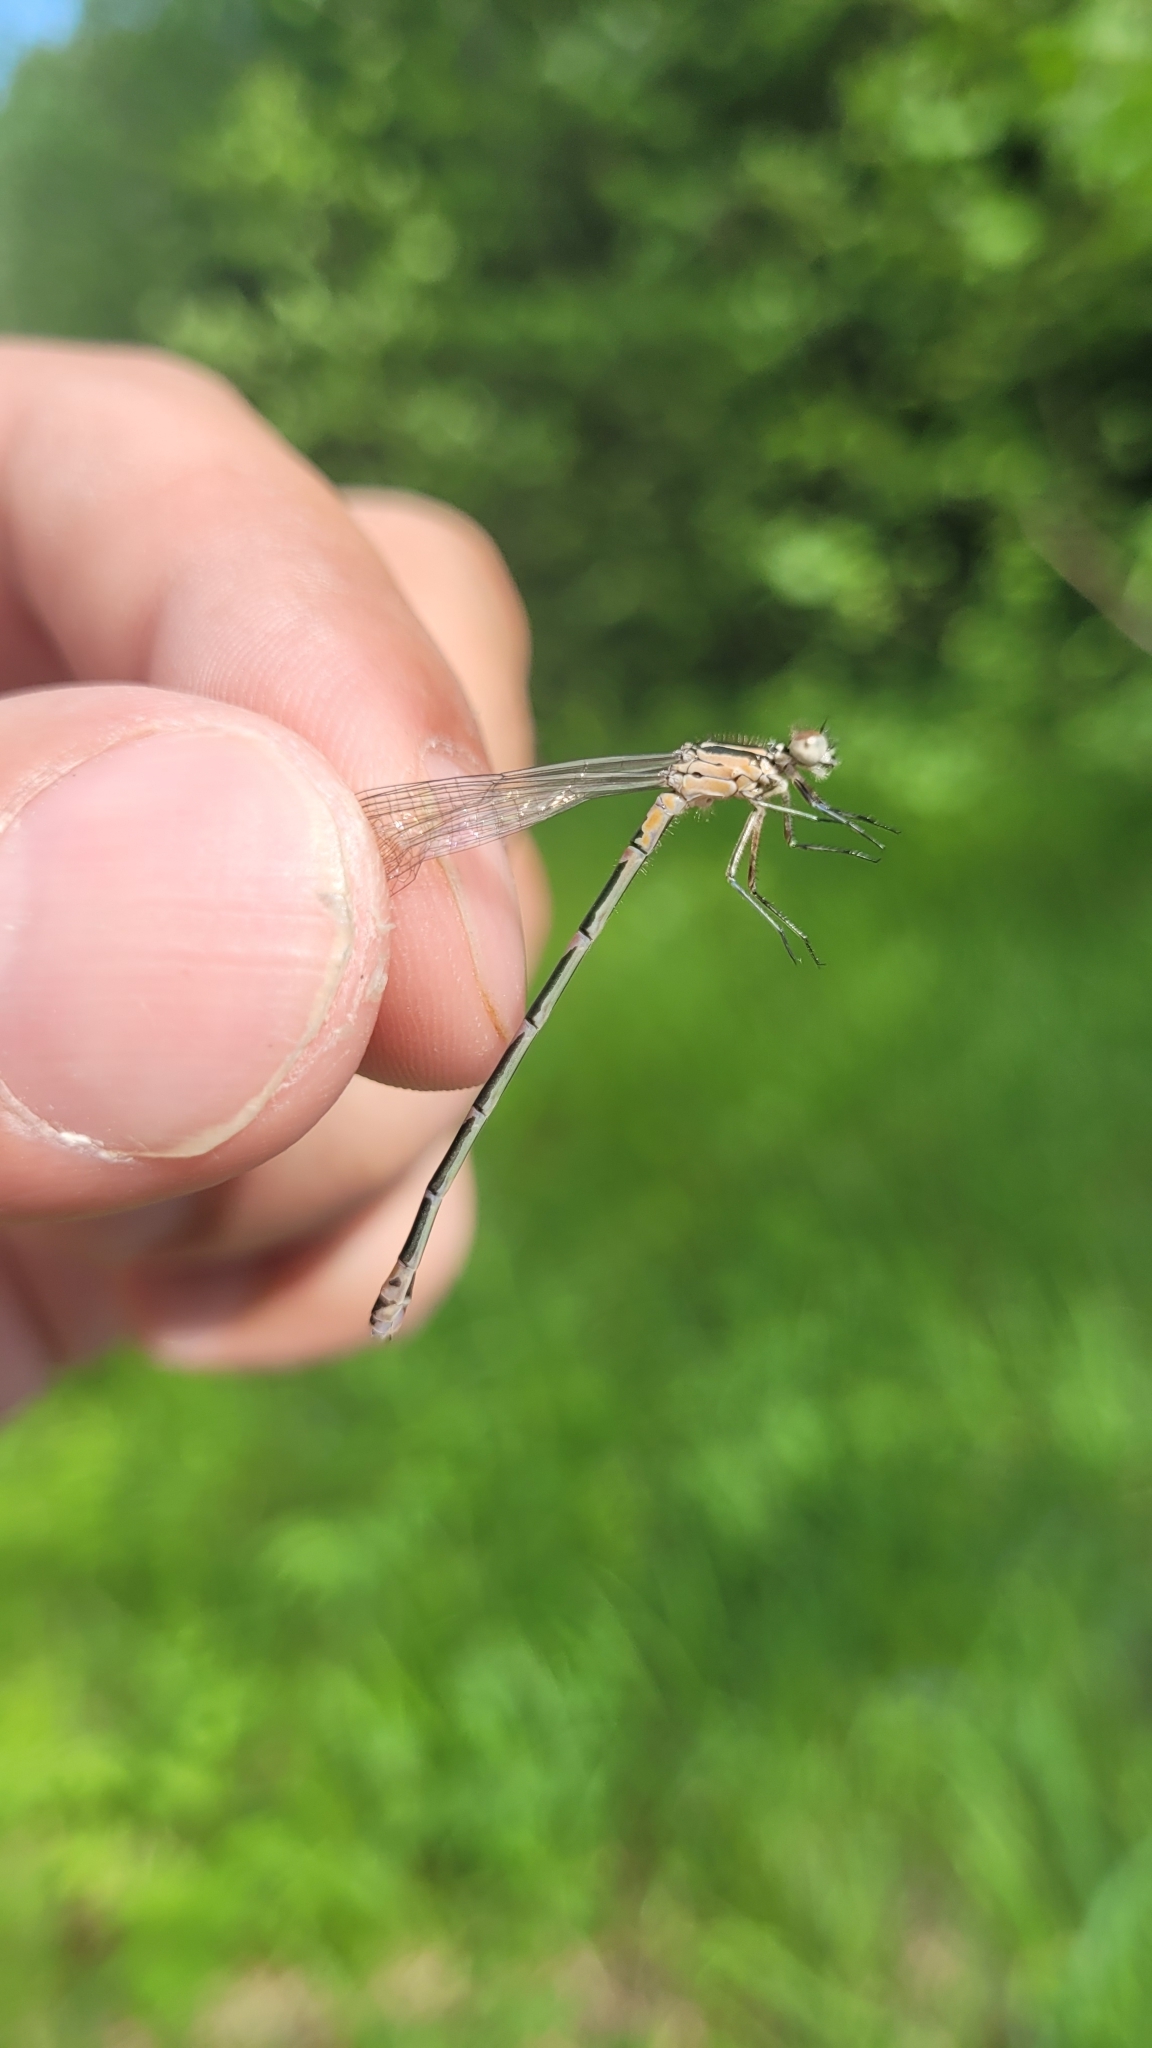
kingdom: Animalia
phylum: Arthropoda
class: Insecta
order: Odonata
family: Coenagrionidae
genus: Coenagrion
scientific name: Coenagrion pulchellum
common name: Variable bluet
